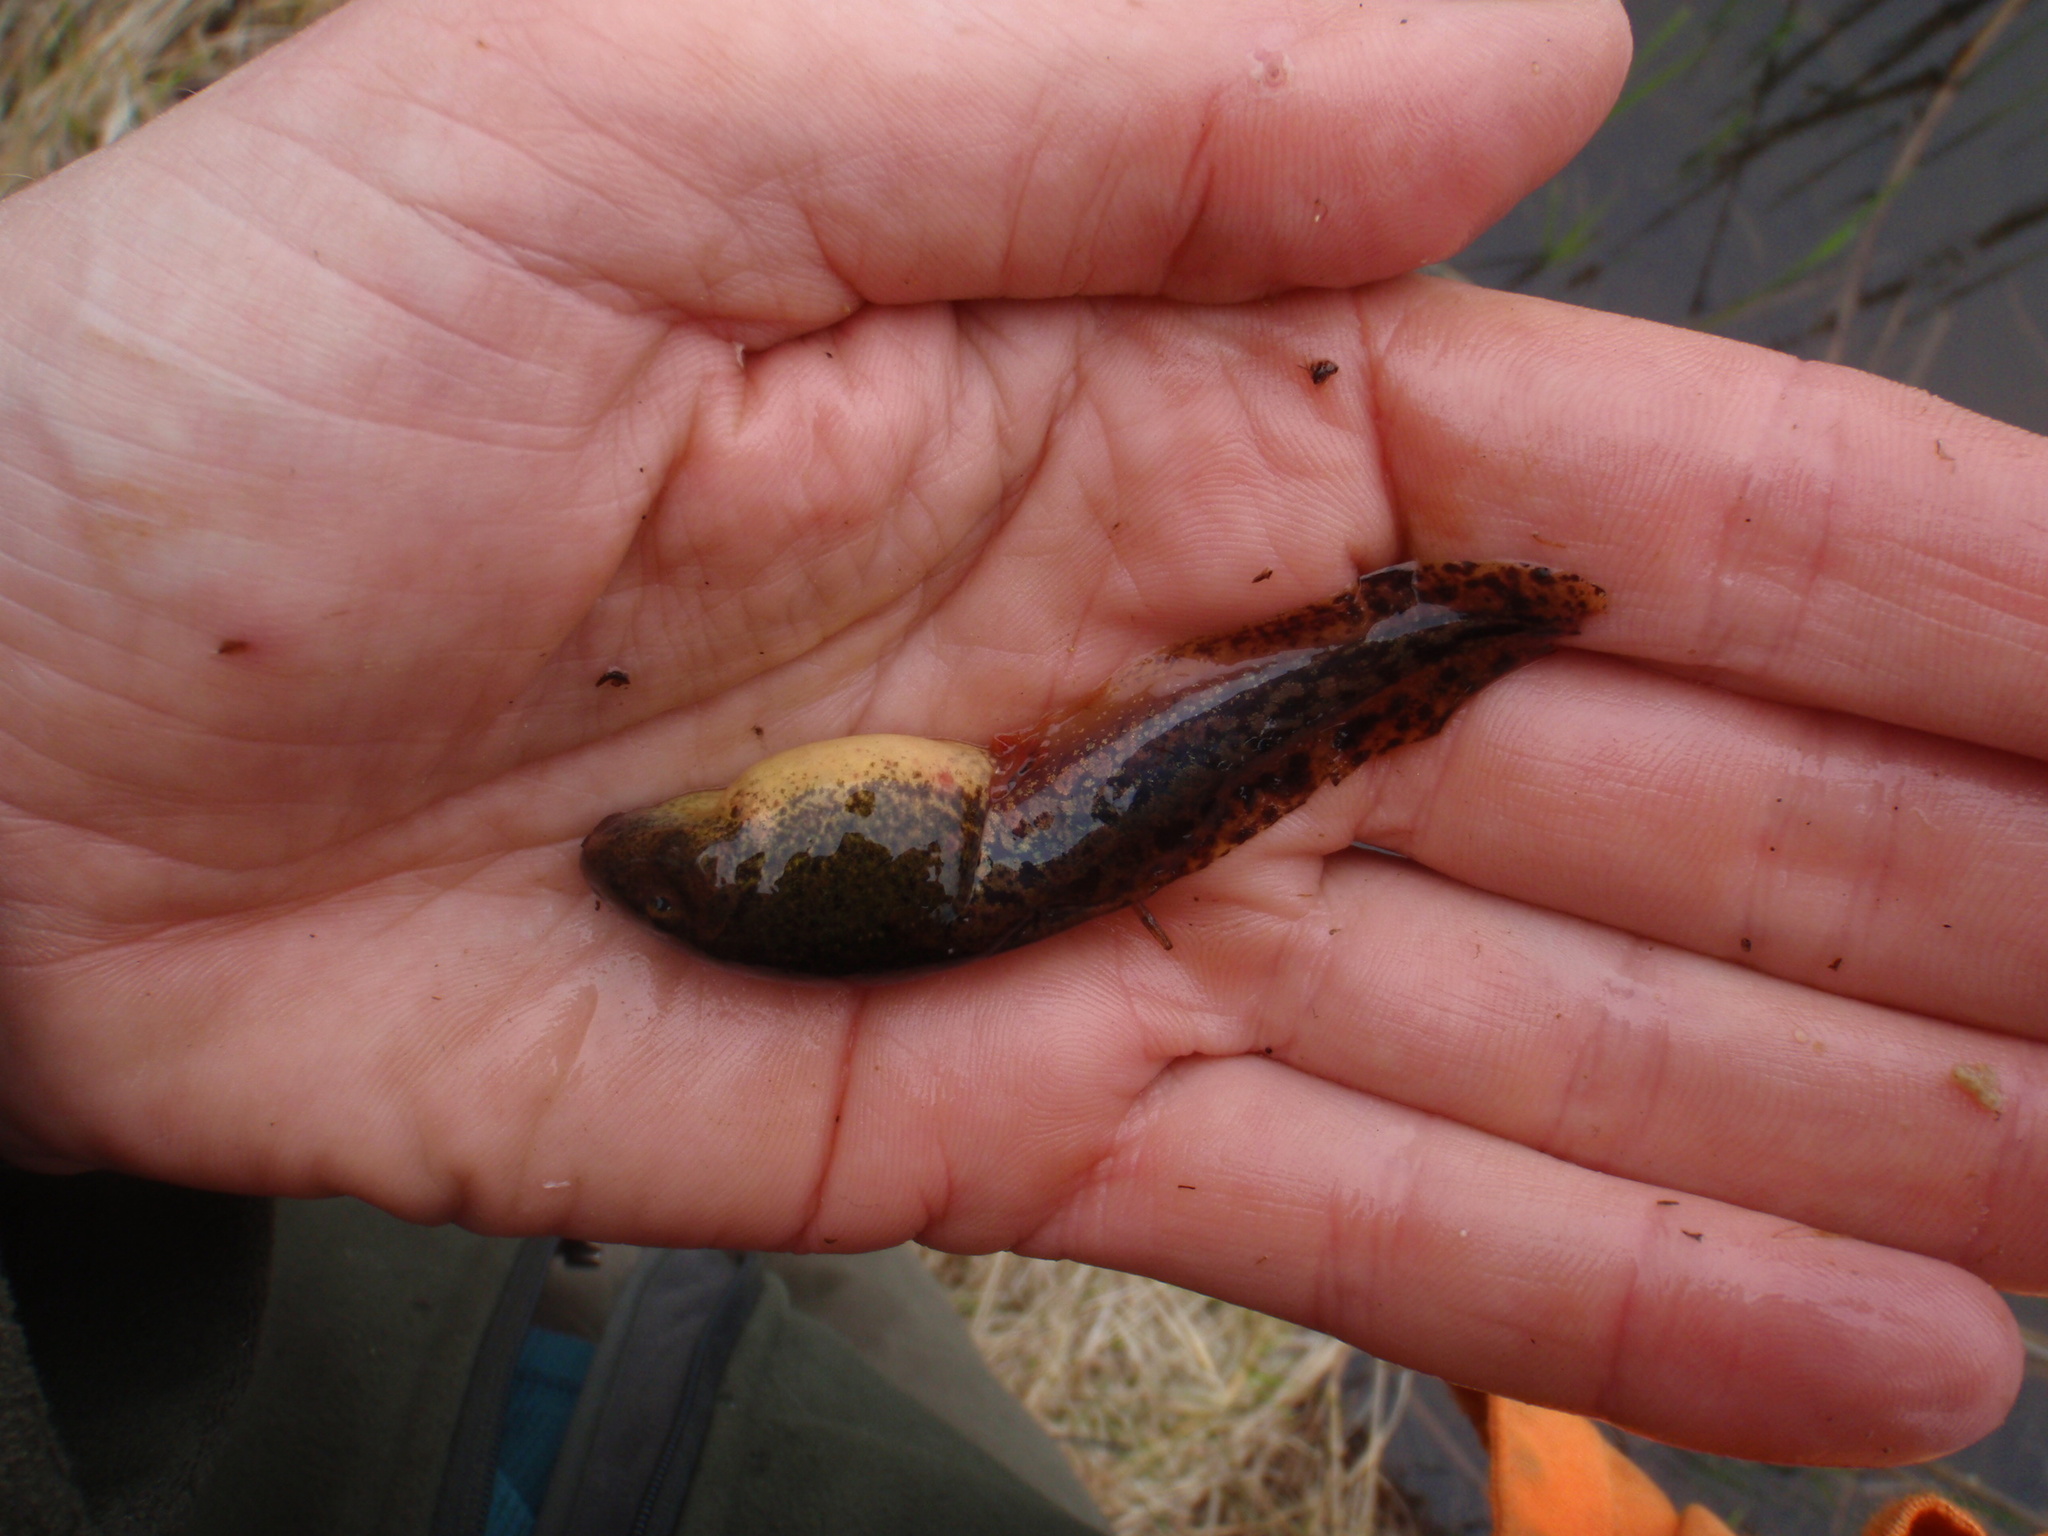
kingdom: Animalia
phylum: Chordata
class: Amphibia
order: Anura
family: Ranidae
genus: Lithobates
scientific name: Lithobates clamitans
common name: Green frog
